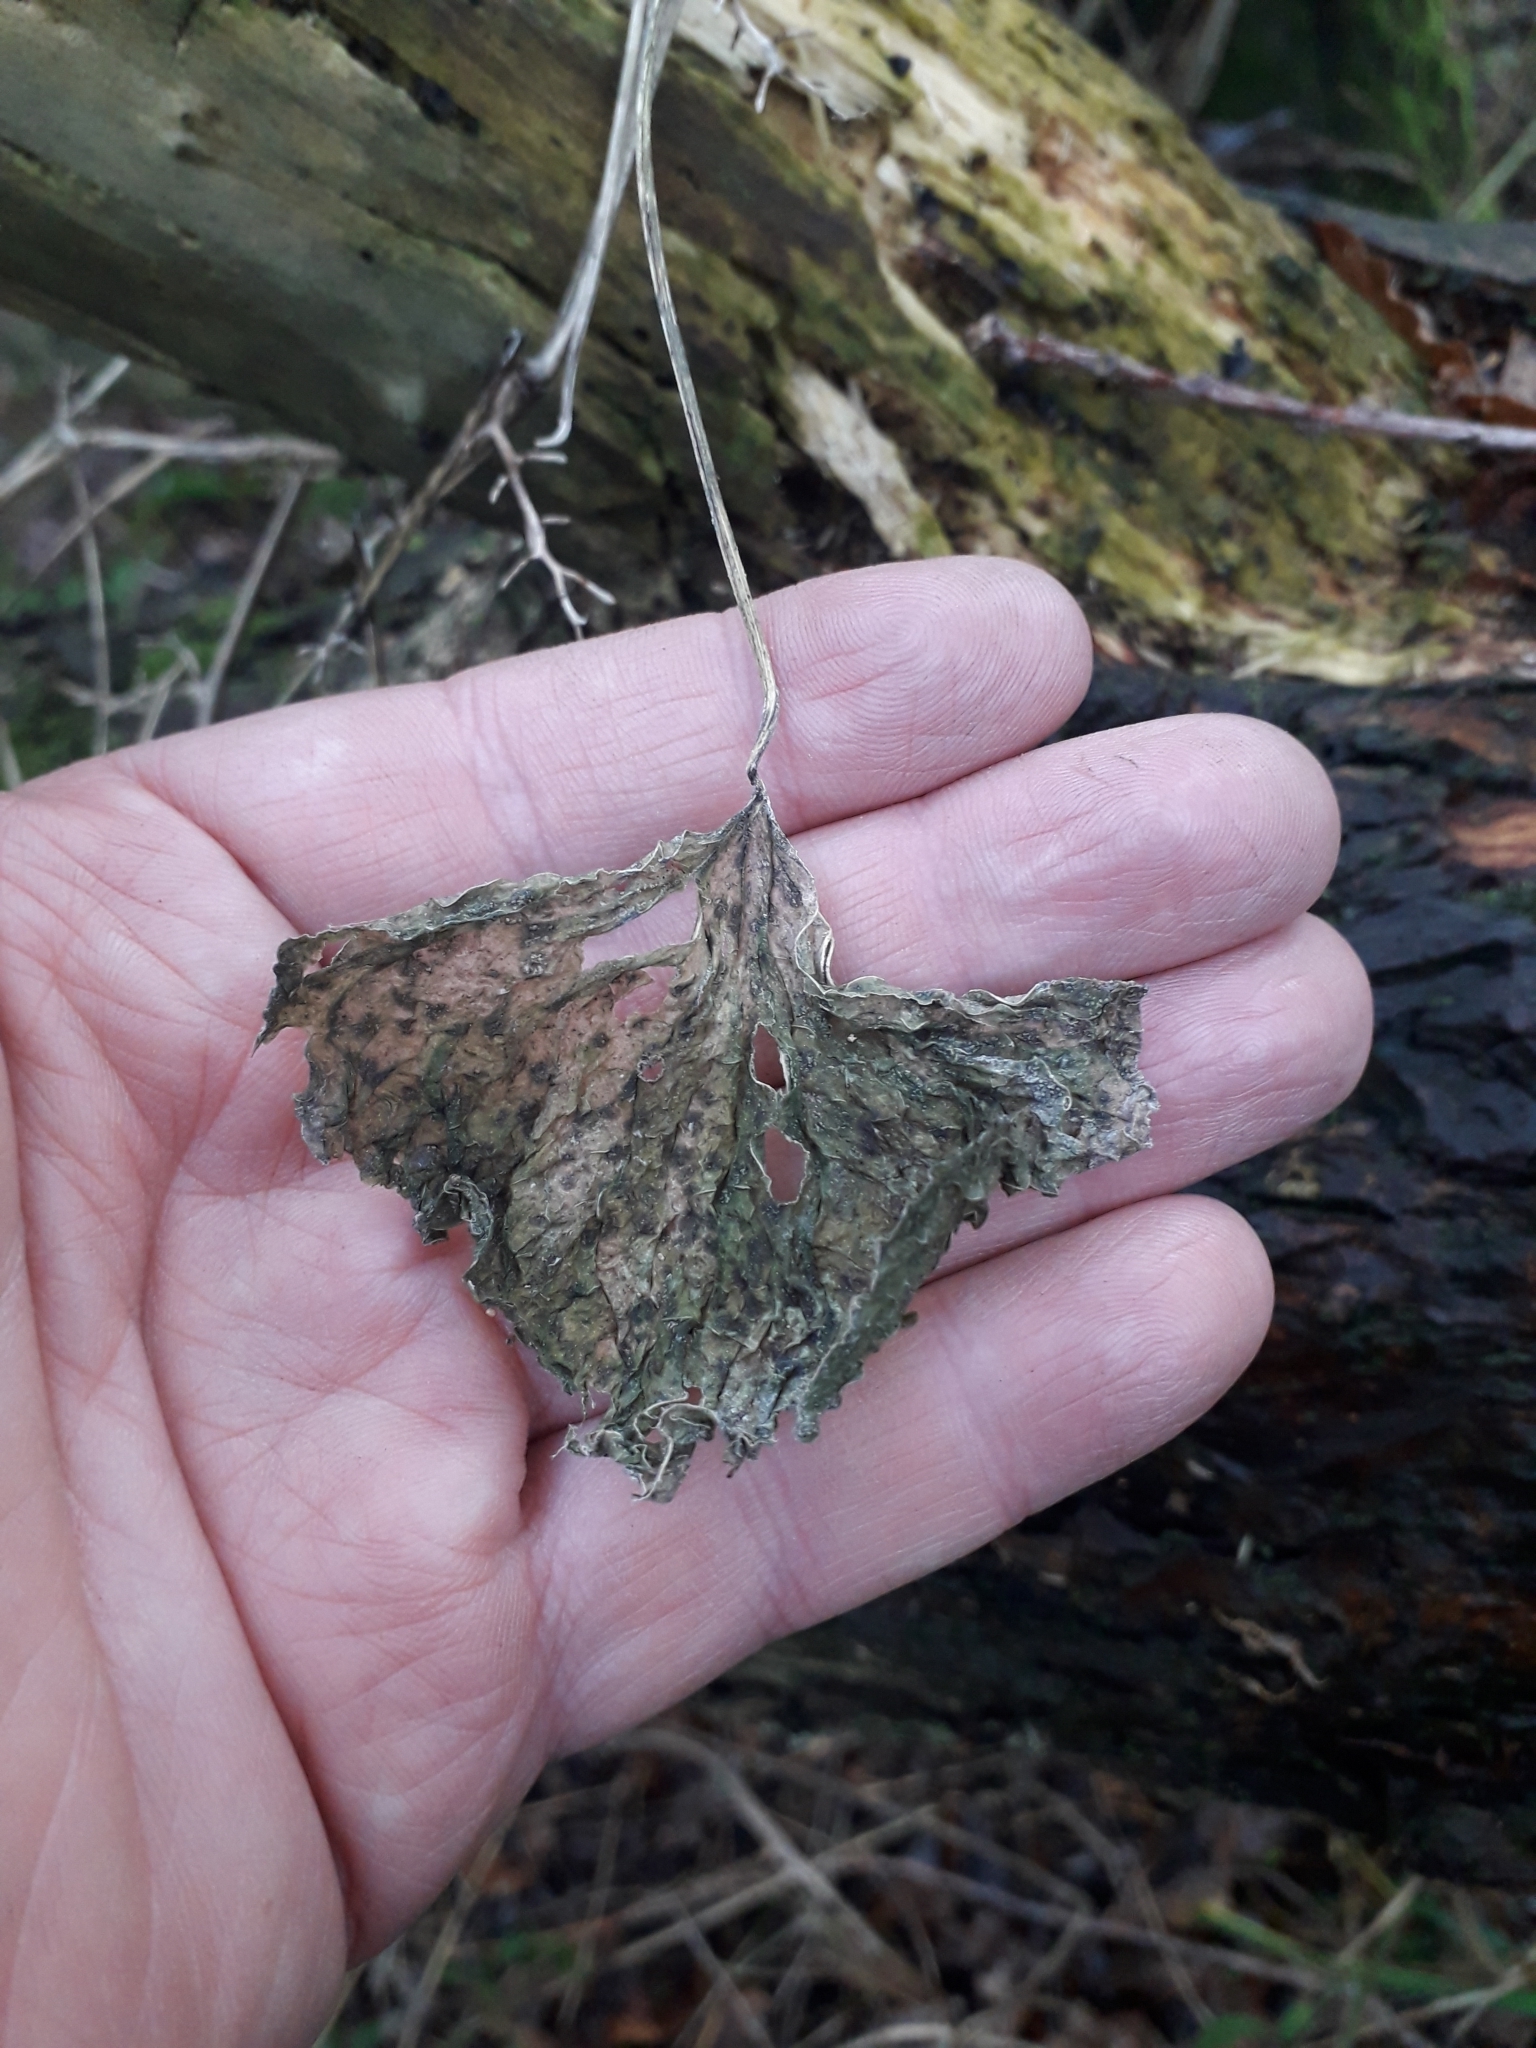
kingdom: Plantae
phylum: Tracheophyta
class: Liliopsida
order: Dioscoreales
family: Dioscoreaceae
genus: Dioscorea
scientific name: Dioscorea communis
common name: Black-bindweed
